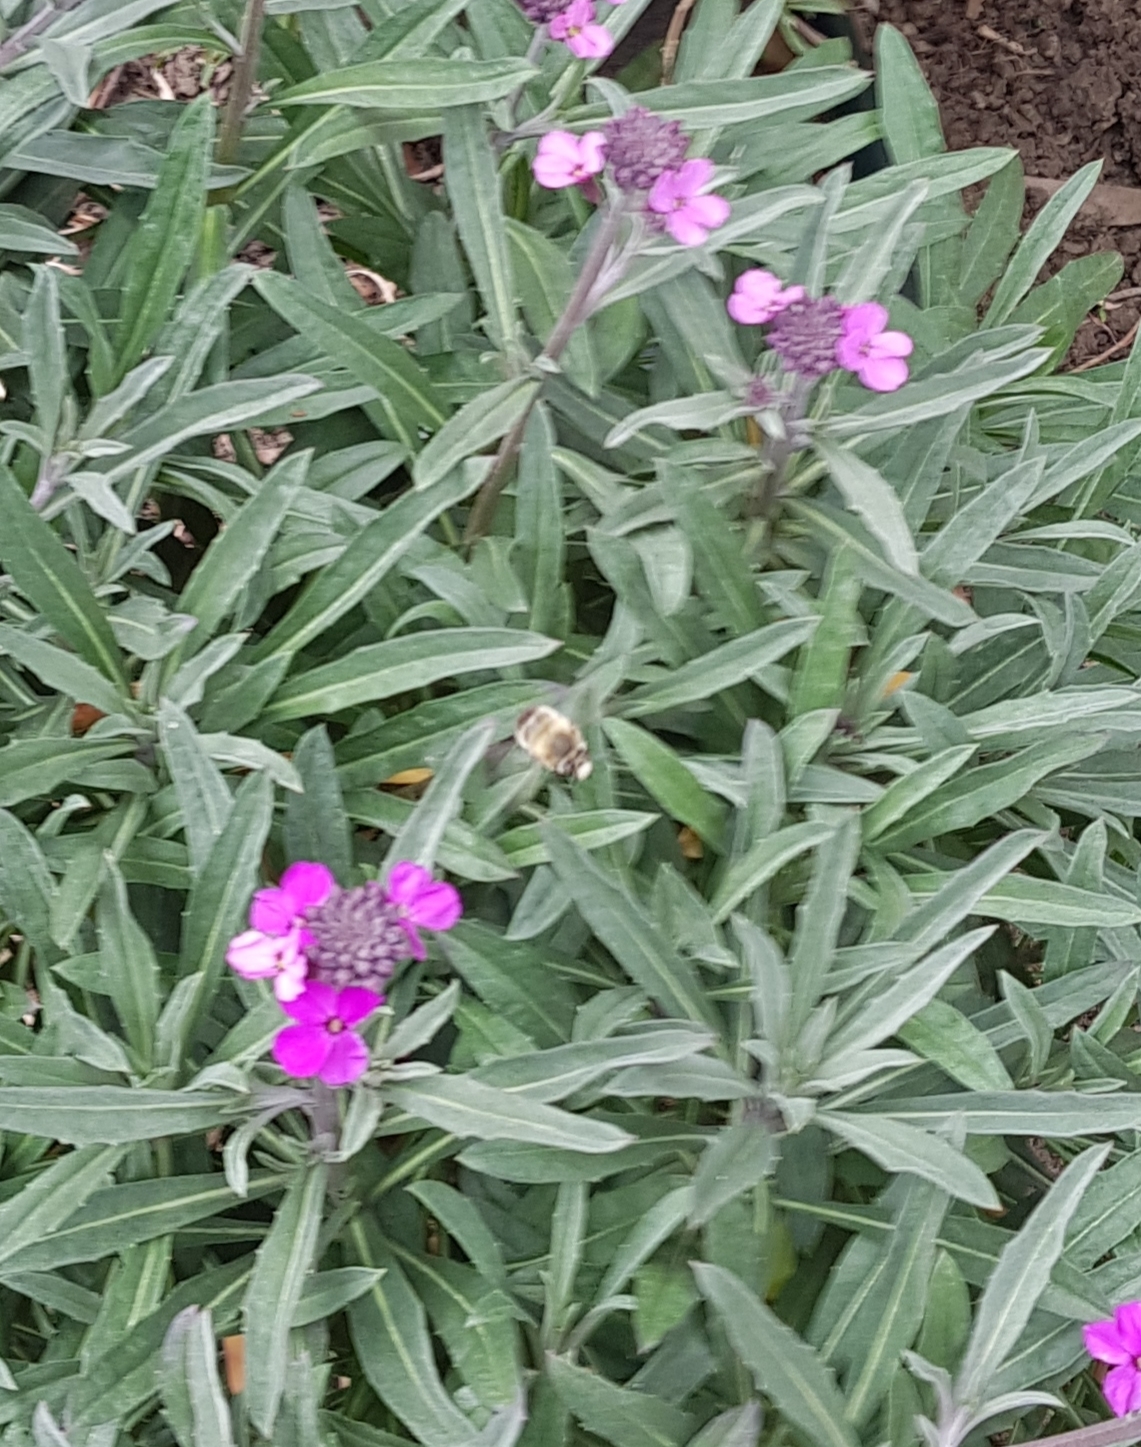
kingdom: Animalia
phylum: Arthropoda
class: Insecta
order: Hymenoptera
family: Apidae
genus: Anthophora
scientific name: Anthophora plumipes
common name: Hairy-footed flower bee
